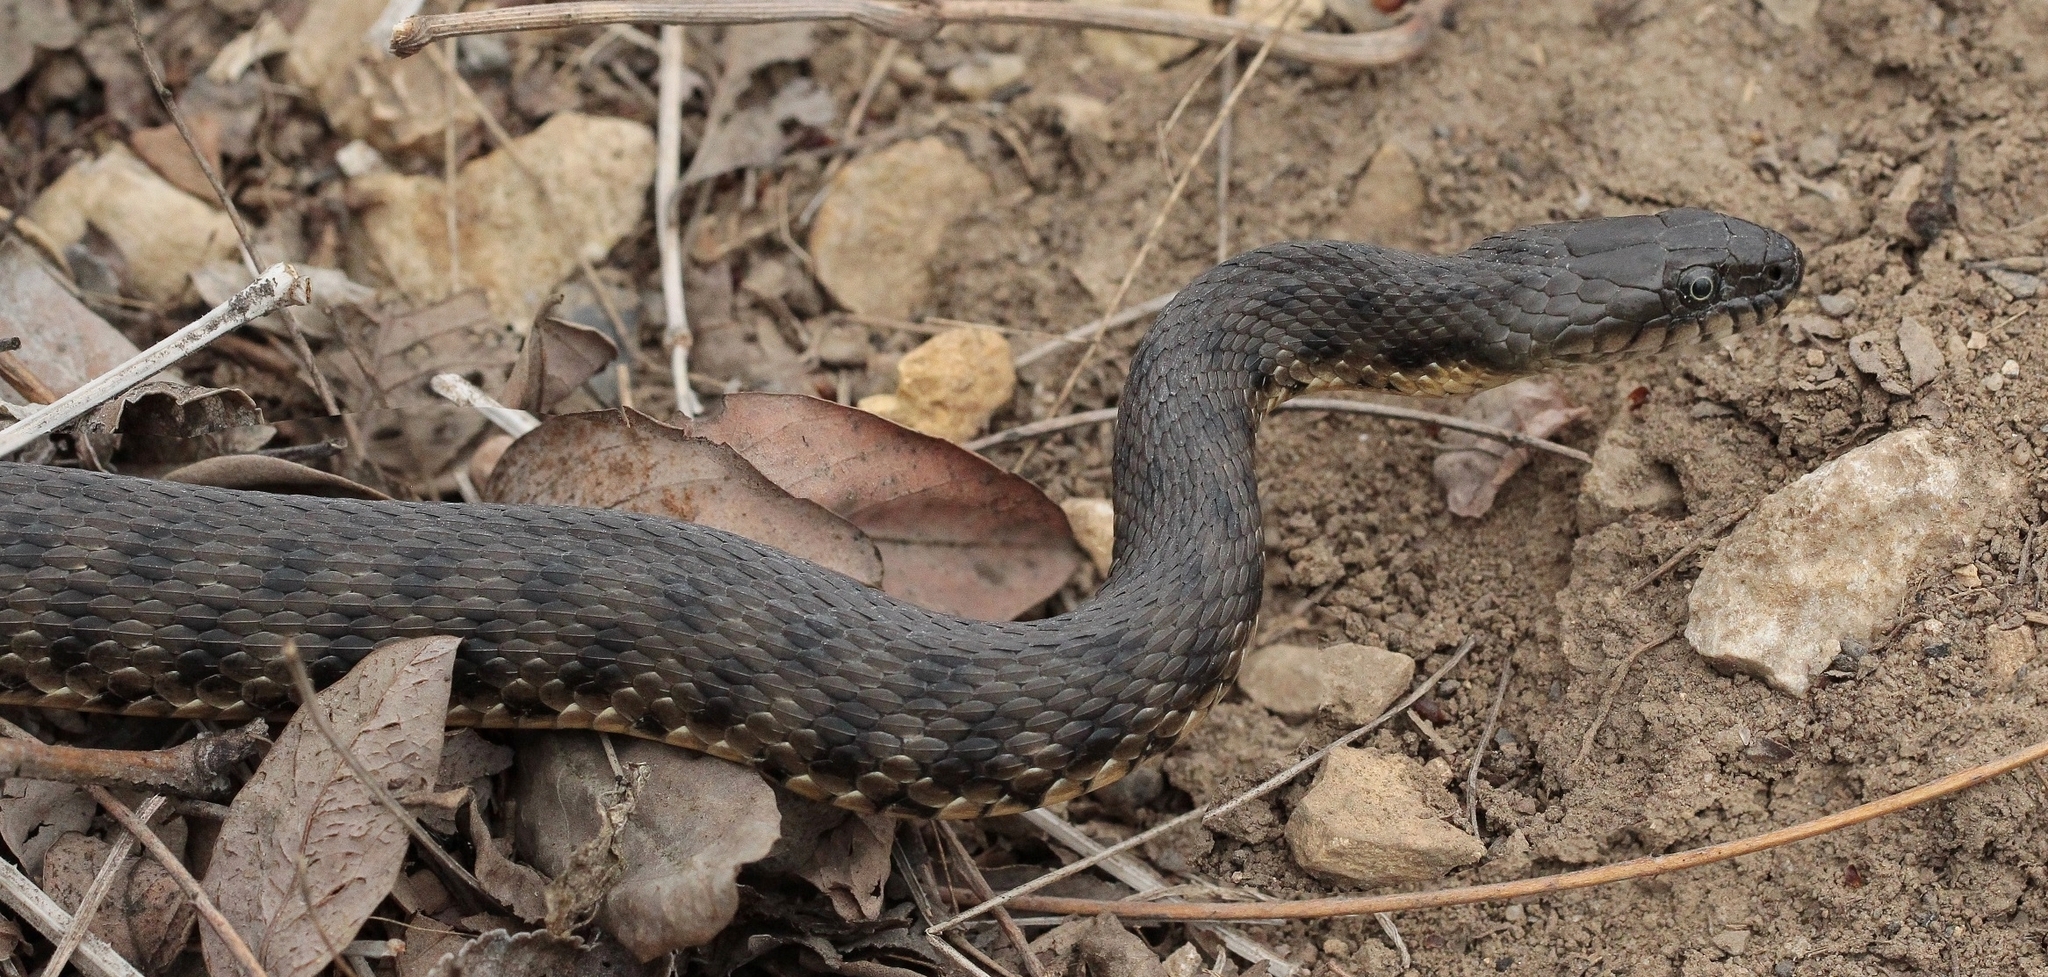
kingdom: Animalia
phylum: Chordata
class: Squamata
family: Colubridae
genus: Natrix
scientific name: Natrix tessellata
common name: Dice snake
